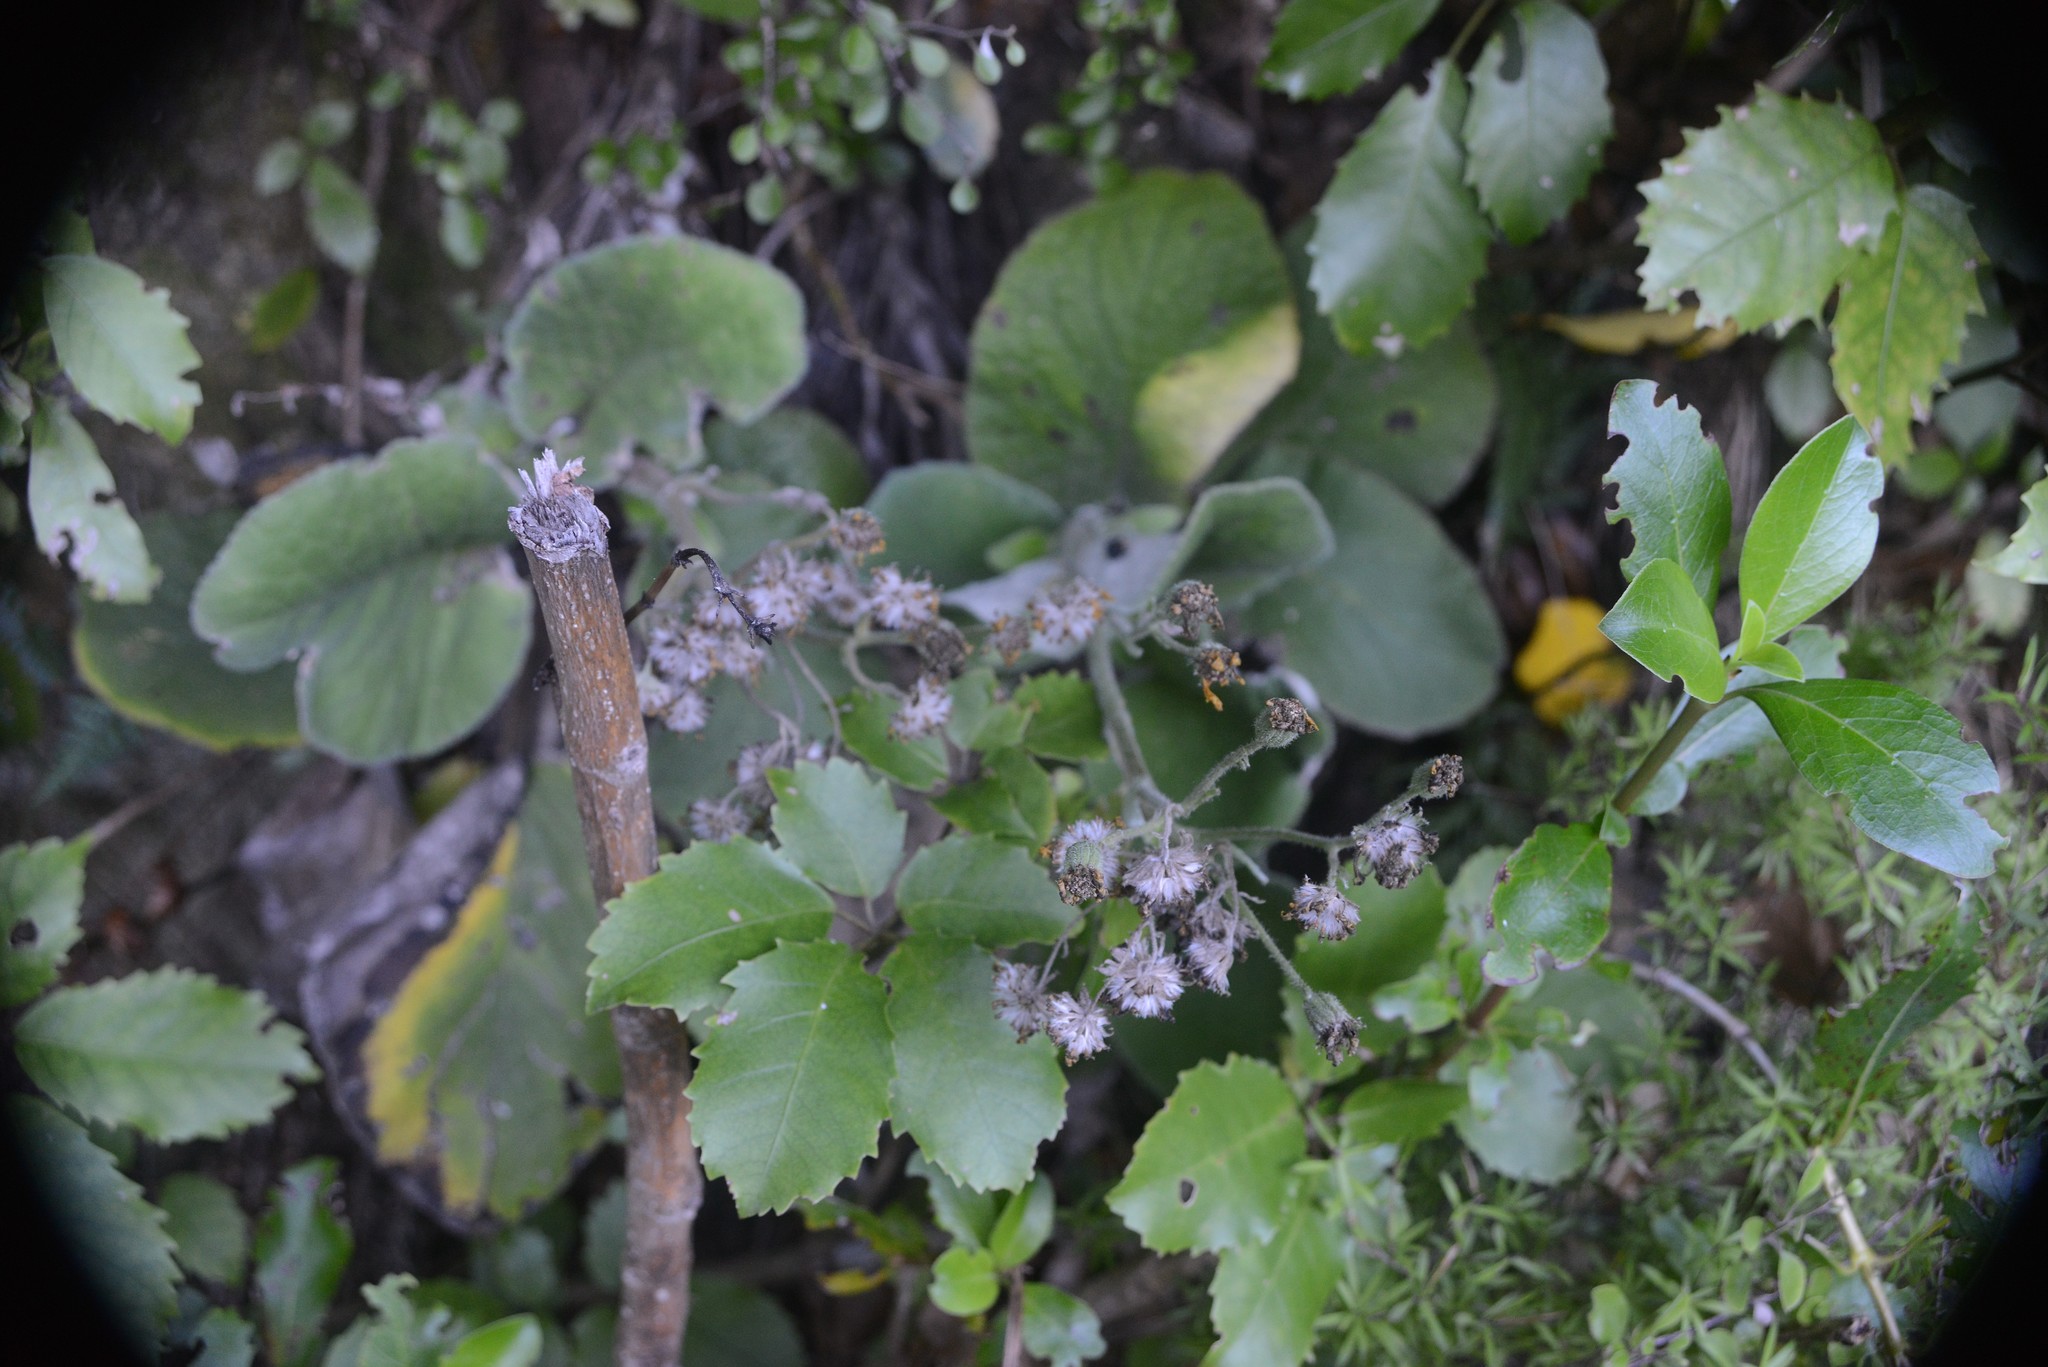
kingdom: Plantae
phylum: Tracheophyta
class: Magnoliopsida
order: Asterales
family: Asteraceae
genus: Brachyglottis
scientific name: Brachyglottis lagopus
